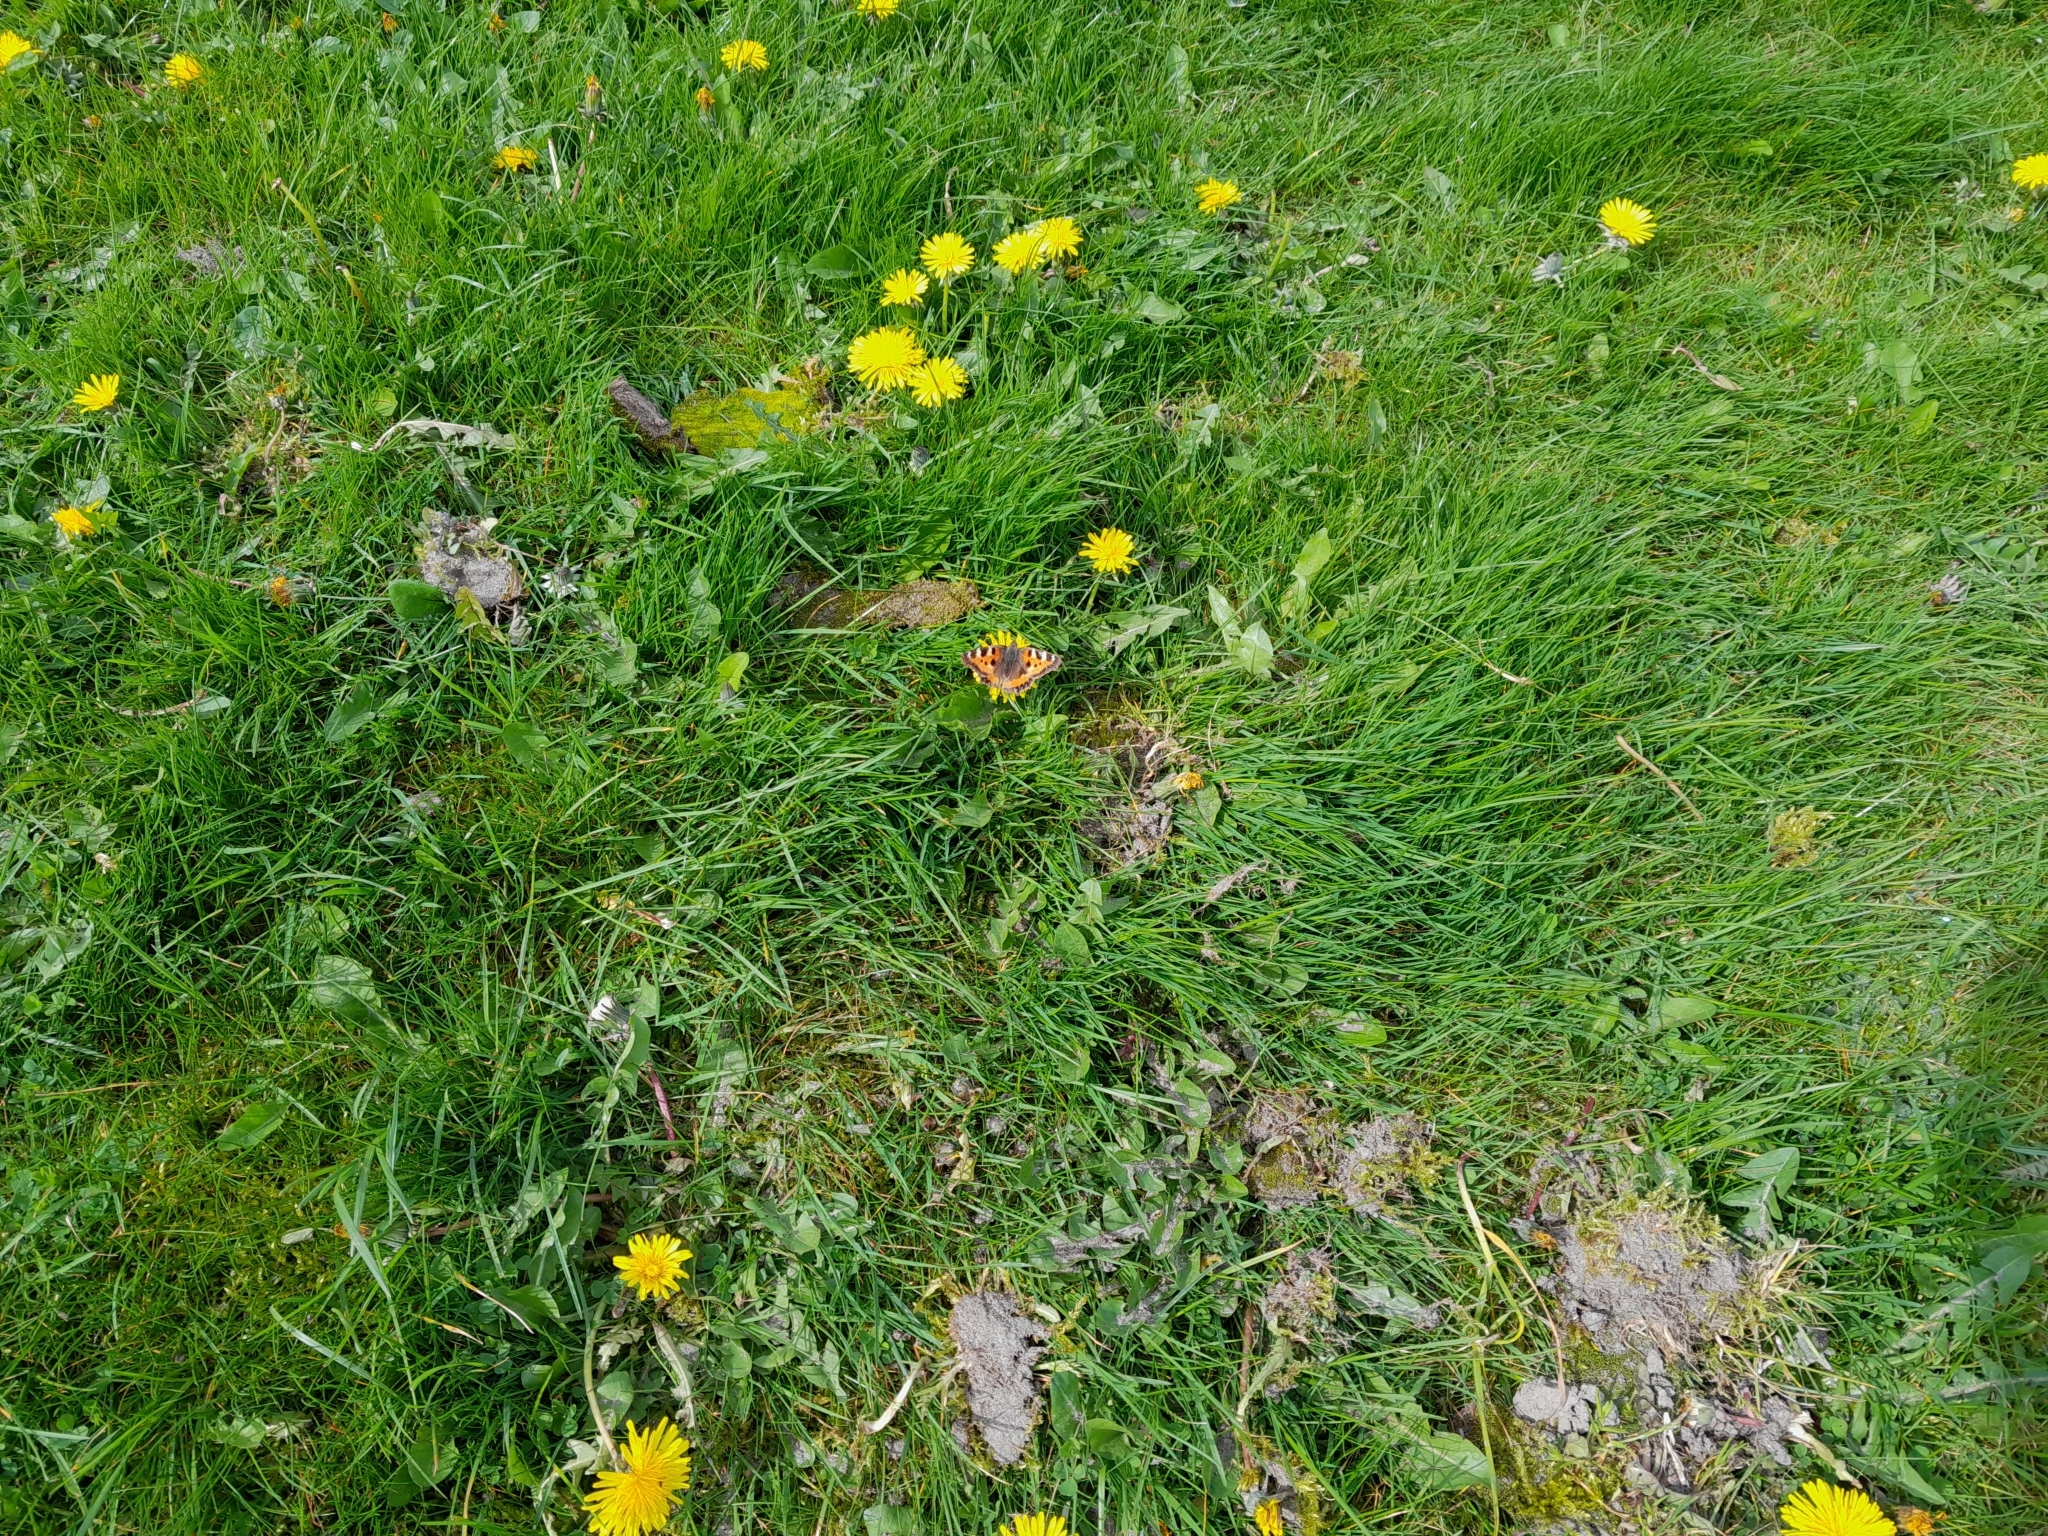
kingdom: Animalia
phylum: Arthropoda
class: Insecta
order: Lepidoptera
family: Nymphalidae
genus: Aglais
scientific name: Aglais urticae
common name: Small tortoiseshell
